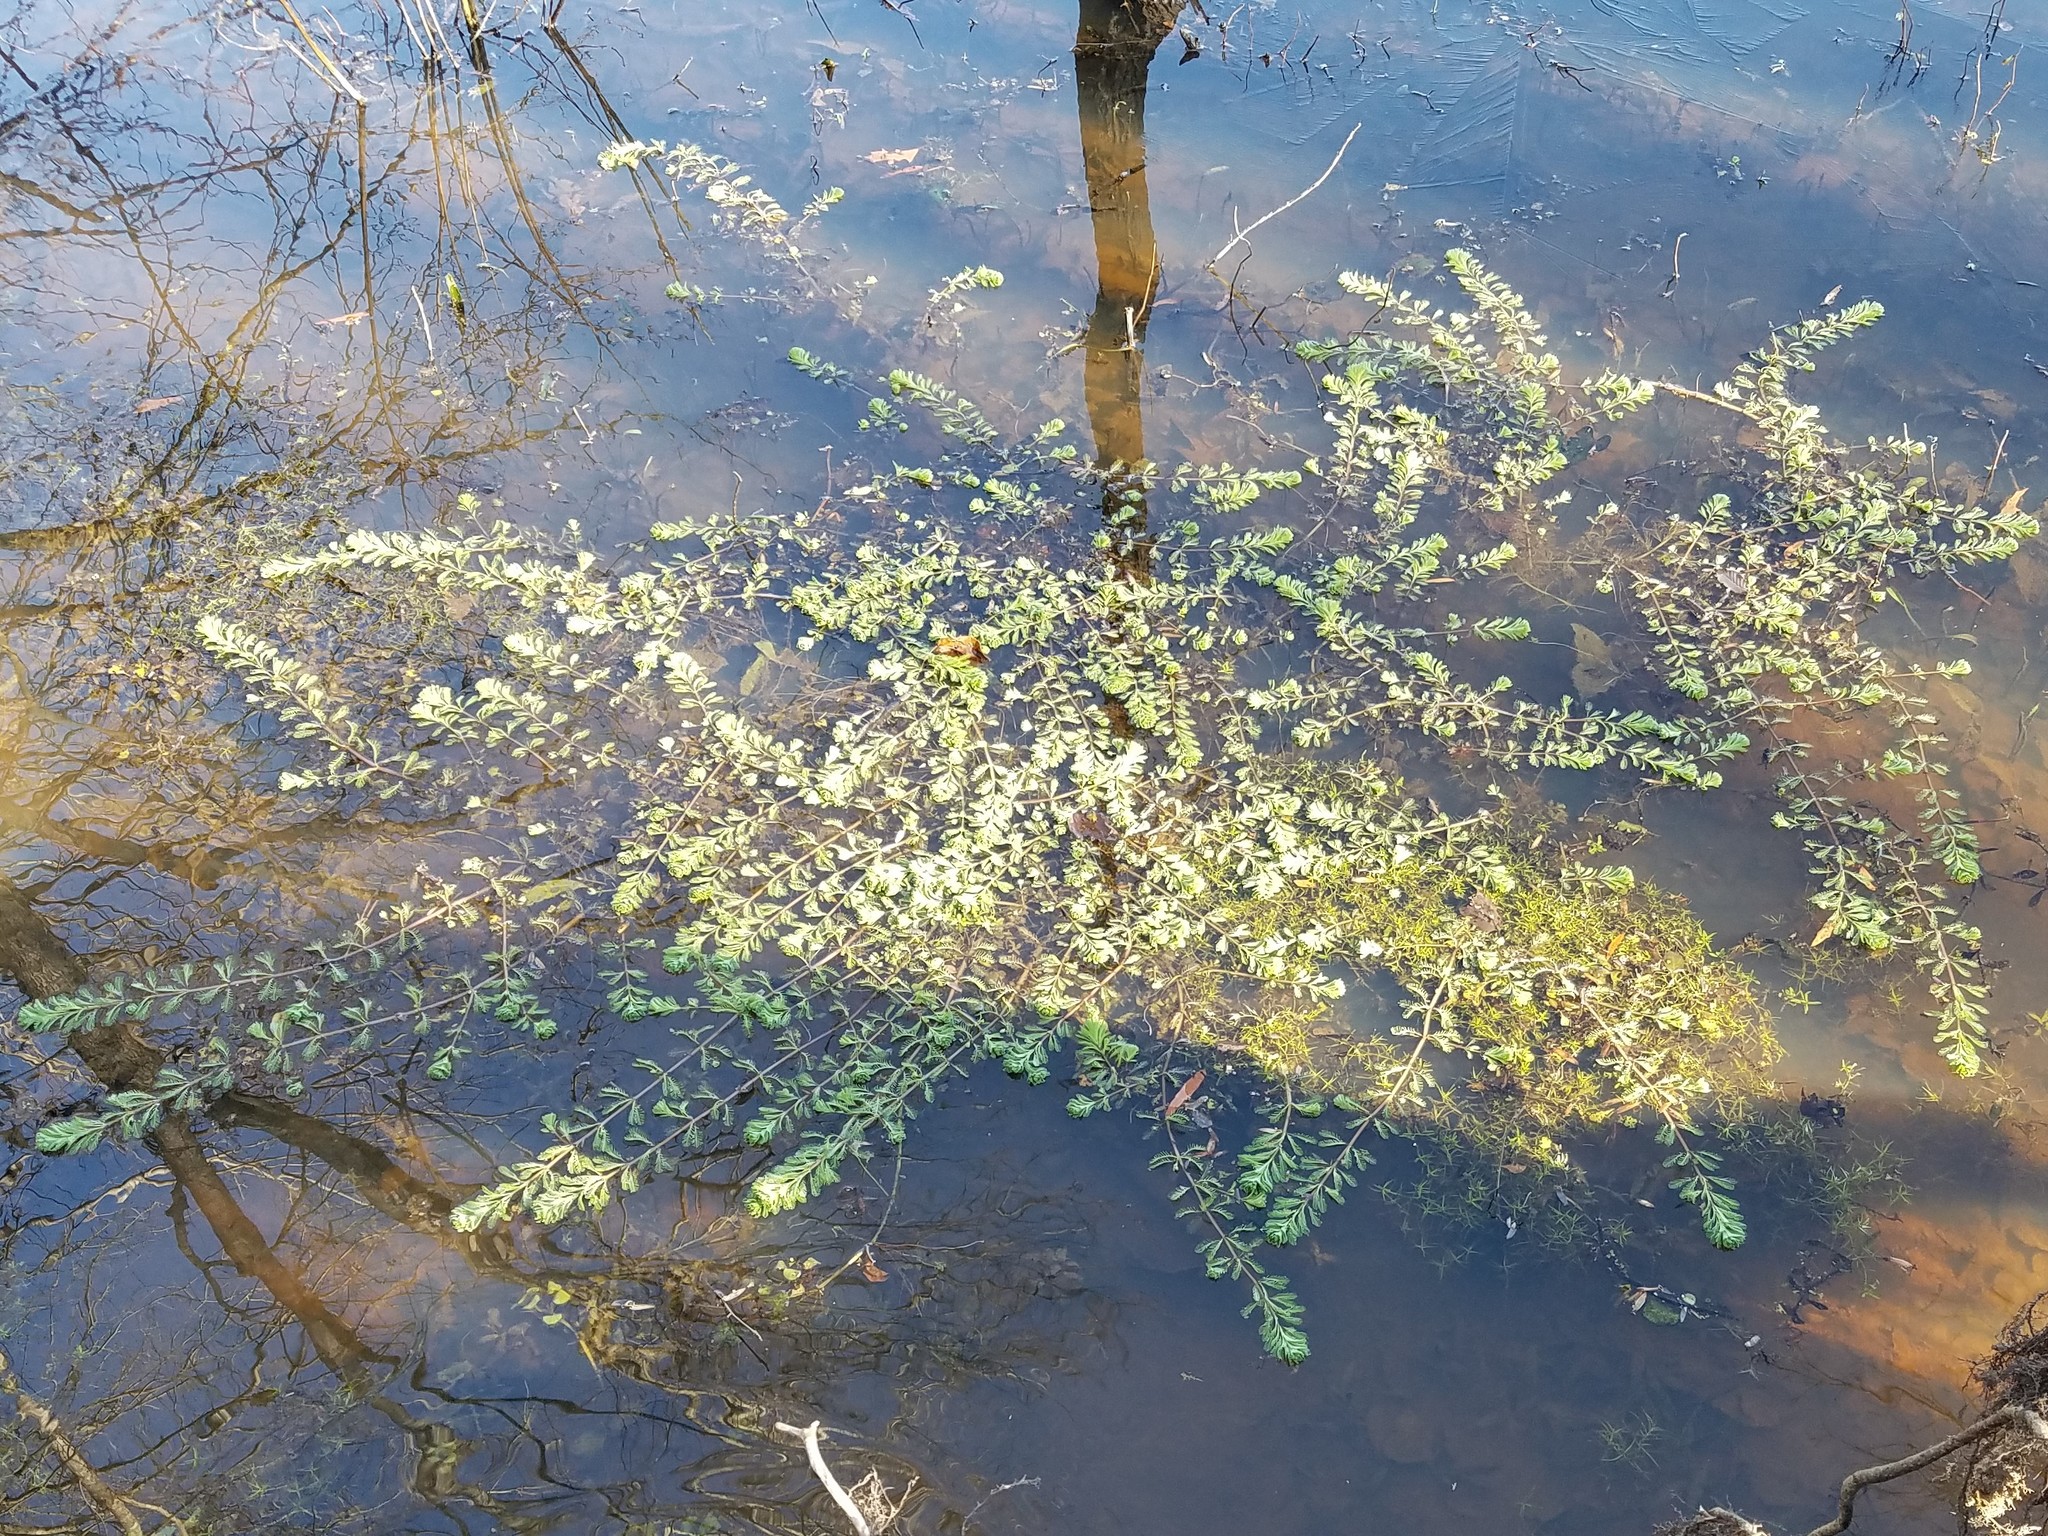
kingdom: Plantae
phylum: Tracheophyta
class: Magnoliopsida
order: Saxifragales
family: Haloragaceae
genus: Myriophyllum
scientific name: Myriophyllum aquaticum
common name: Parrot's feather
